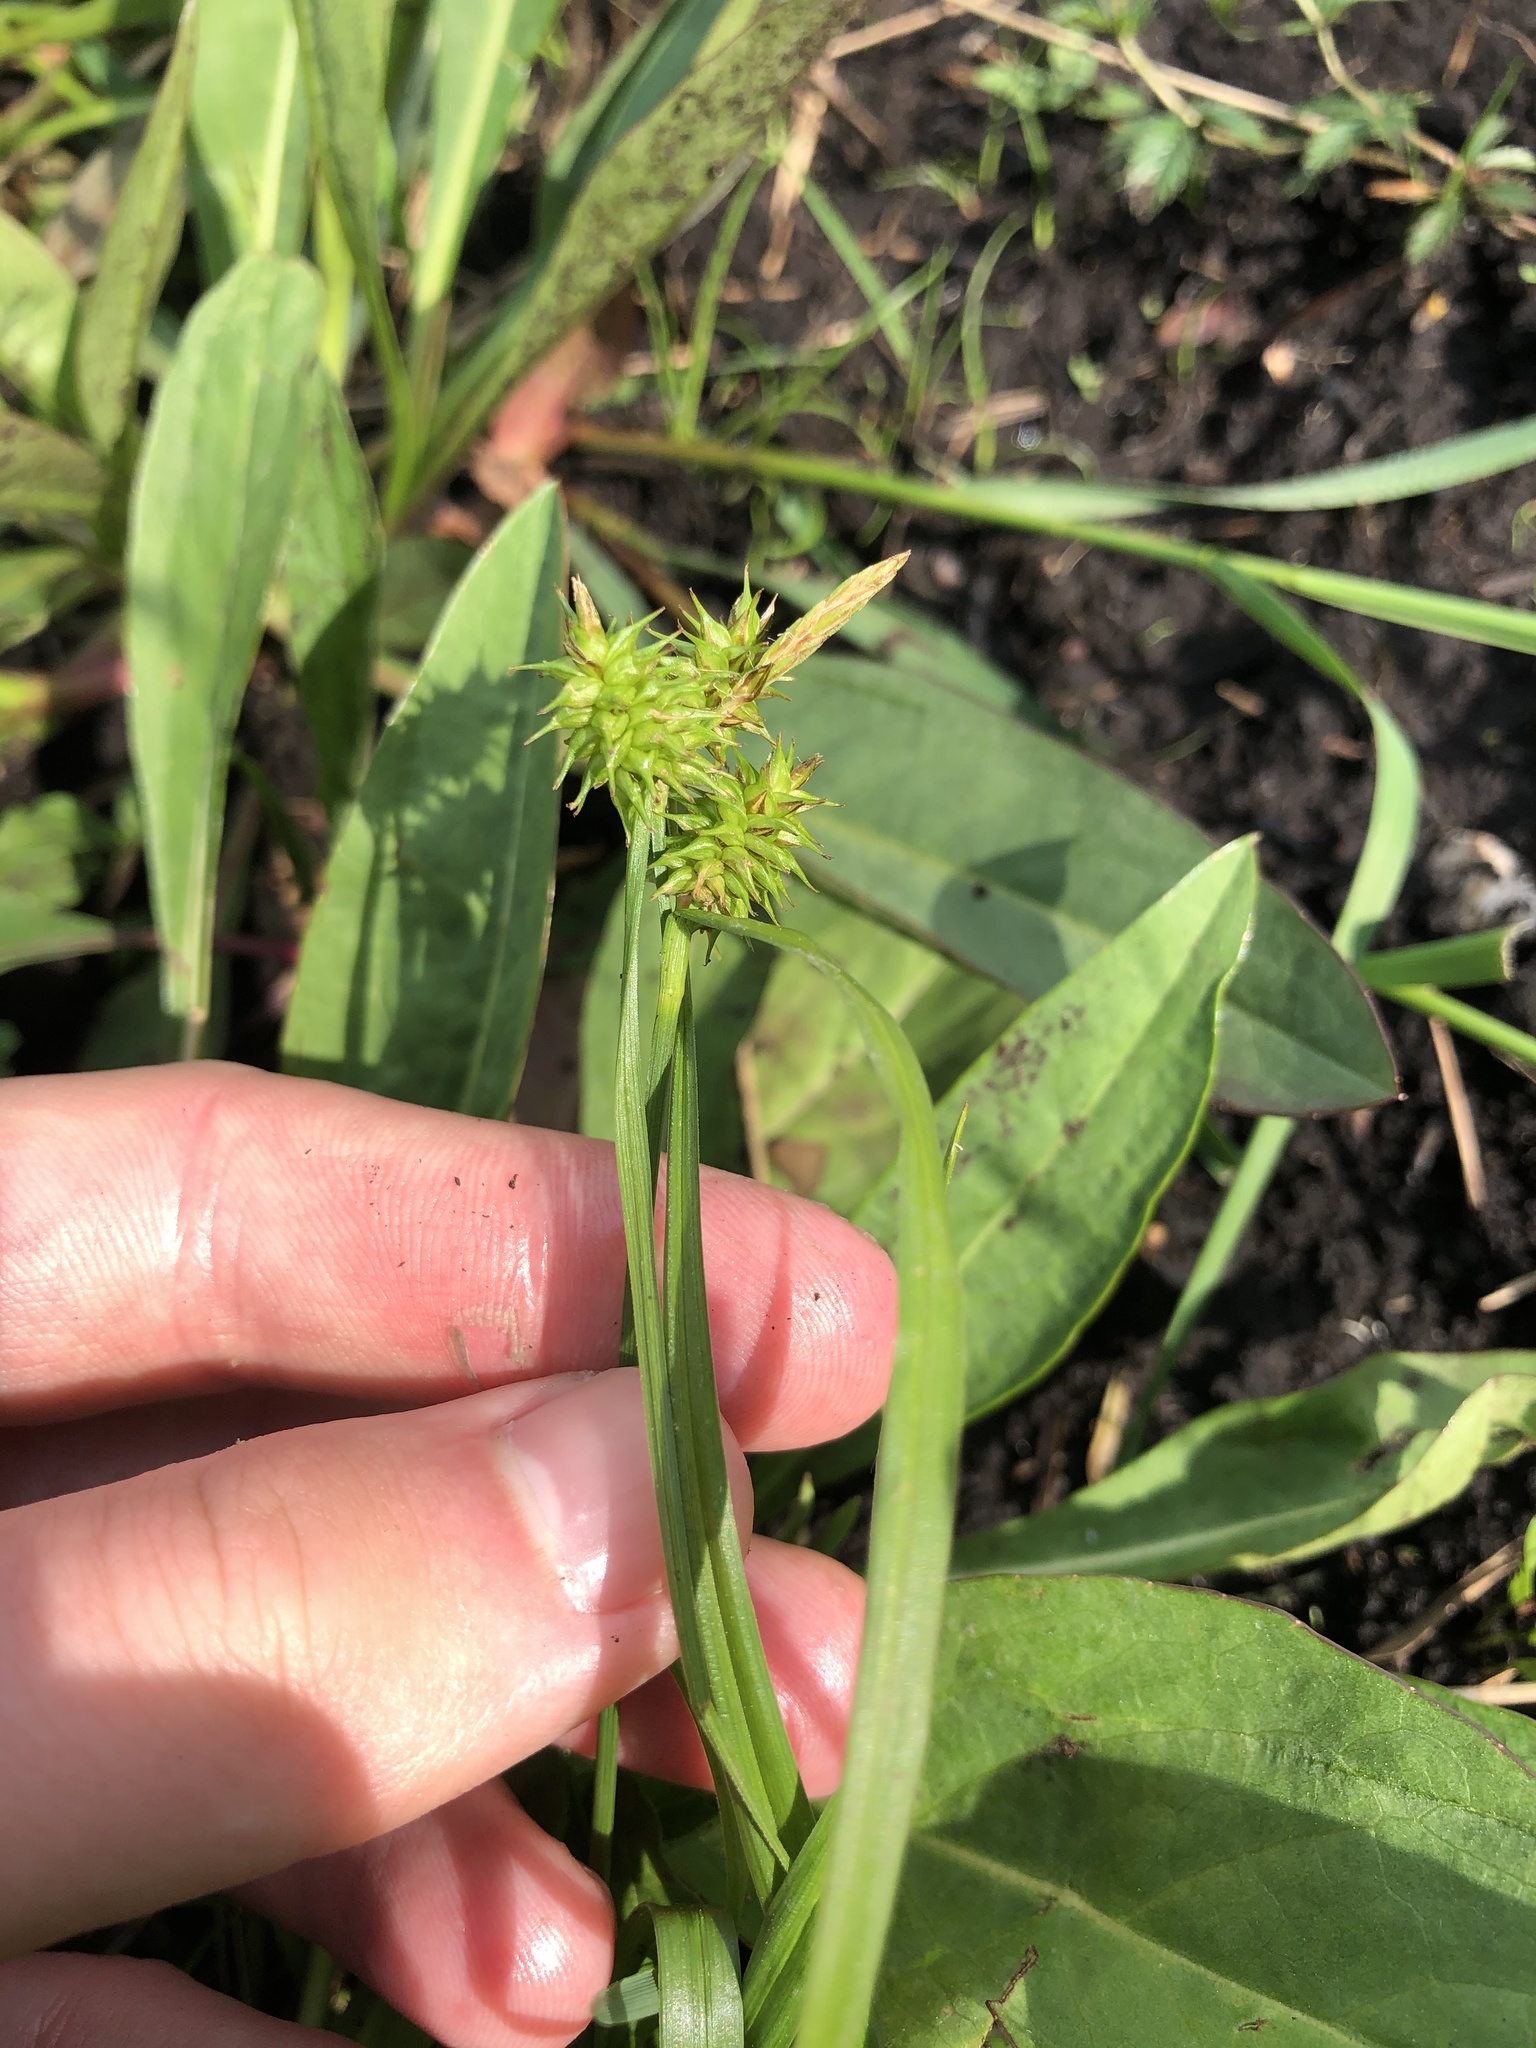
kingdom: Plantae
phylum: Tracheophyta
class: Liliopsida
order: Poales
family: Cyperaceae
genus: Carex
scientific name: Carex flava
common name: Large yellow-sedge
